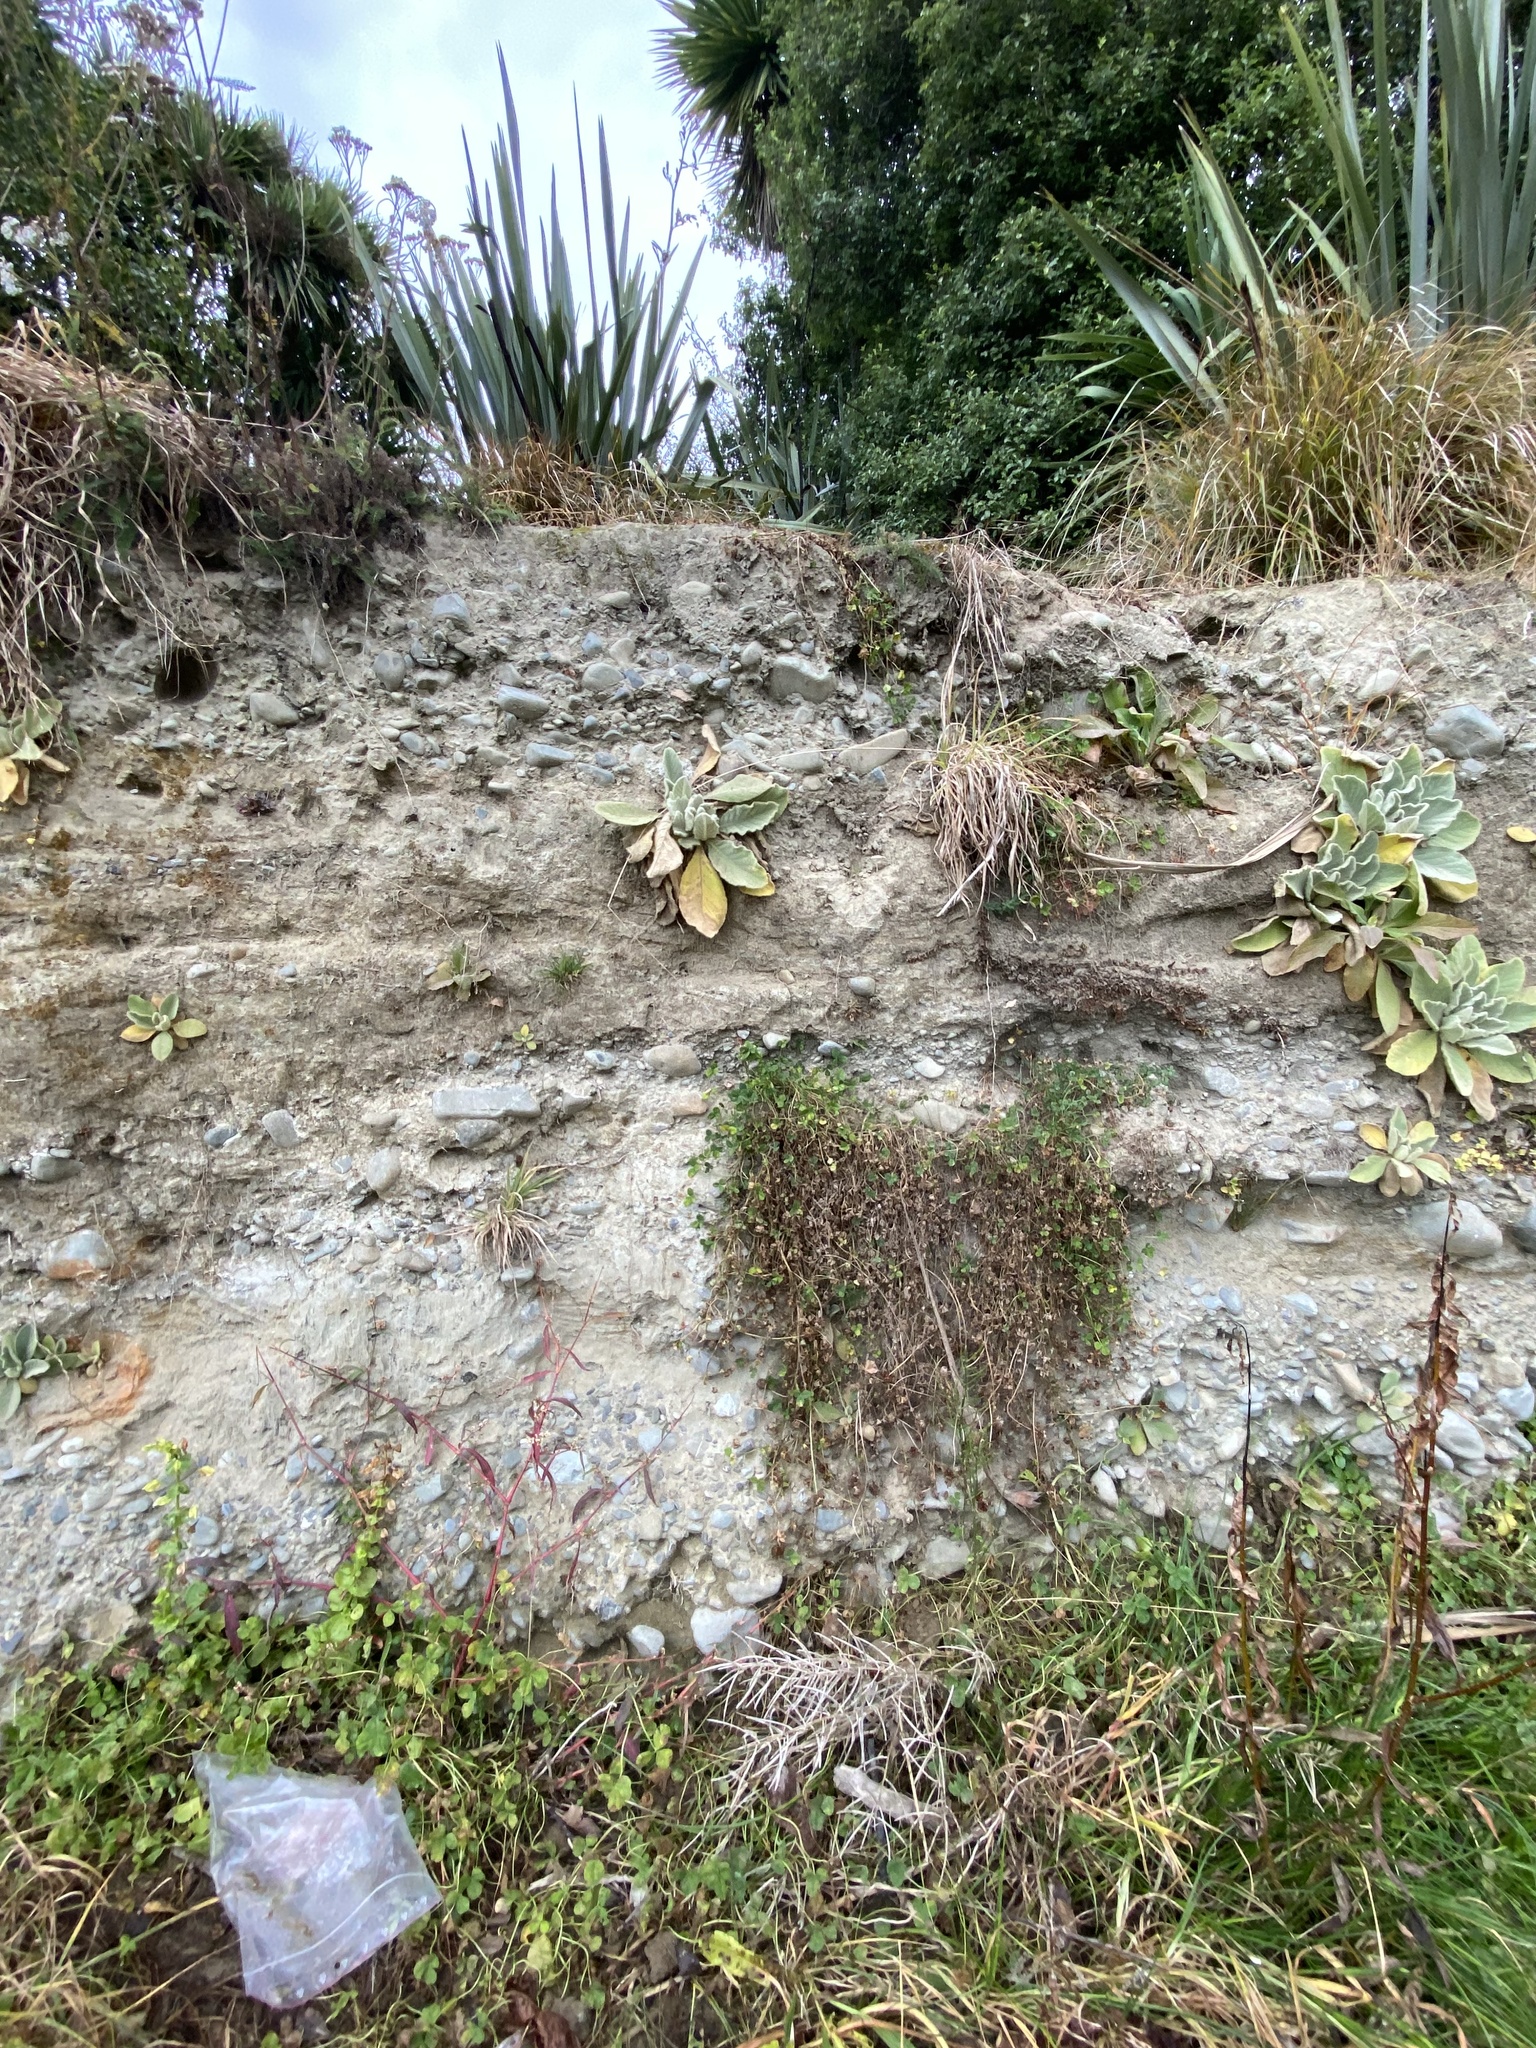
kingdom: Plantae
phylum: Tracheophyta
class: Magnoliopsida
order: Lamiales
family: Scrophulariaceae
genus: Verbascum
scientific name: Verbascum thapsus
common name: Common mullein
